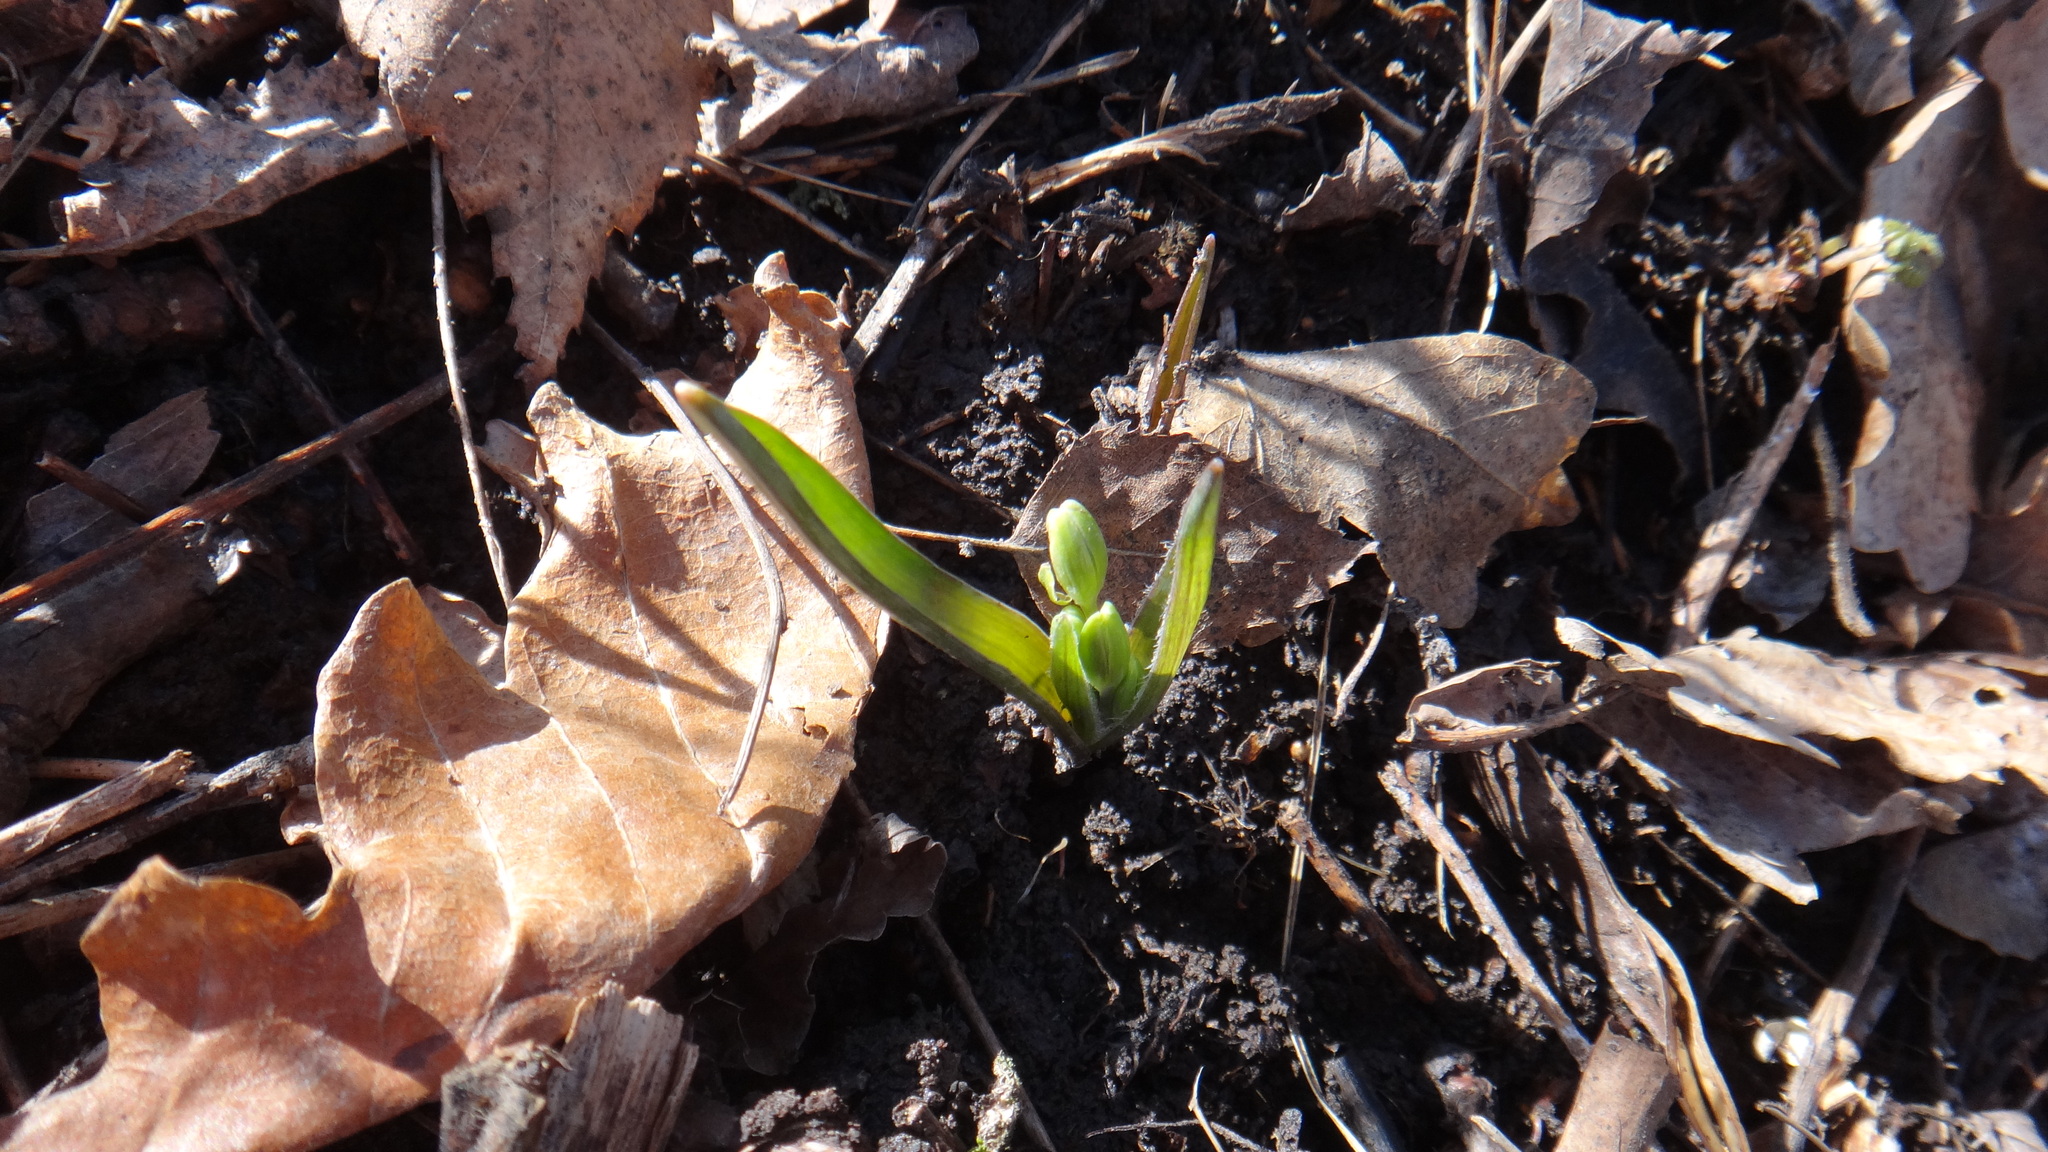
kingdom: Plantae
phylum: Tracheophyta
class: Liliopsida
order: Liliales
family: Liliaceae
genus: Gagea
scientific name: Gagea lutea
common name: Yellow star-of-bethlehem
